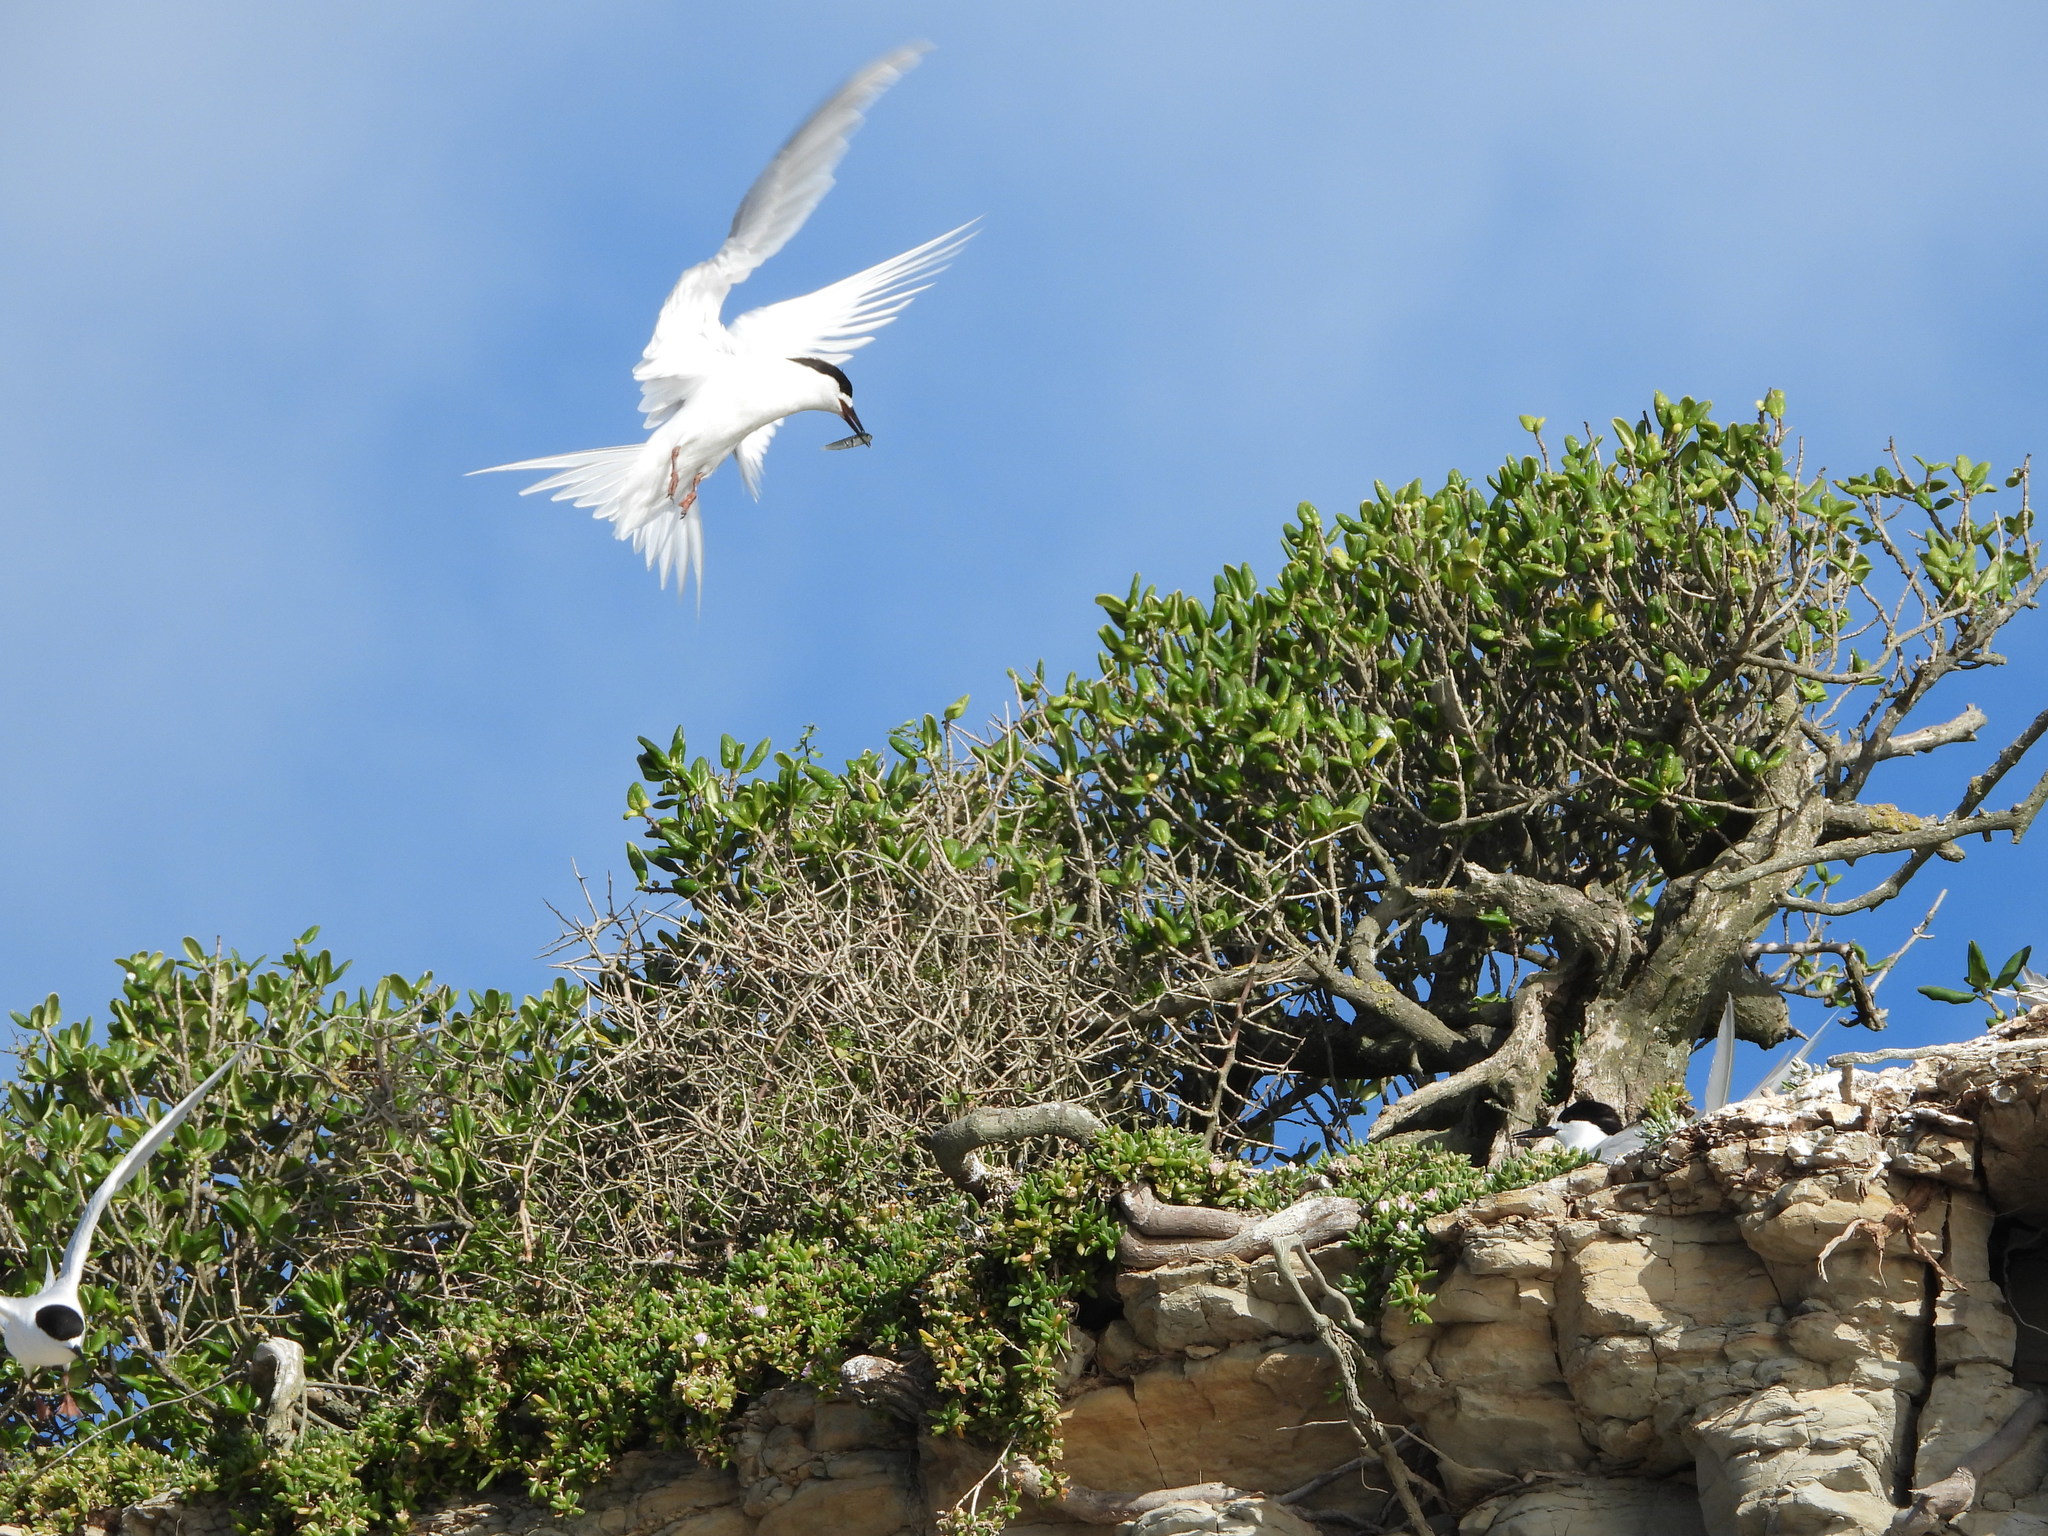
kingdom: Animalia
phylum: Chordata
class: Aves
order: Charadriiformes
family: Laridae
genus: Sterna
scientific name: Sterna striata
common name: White-fronted tern
